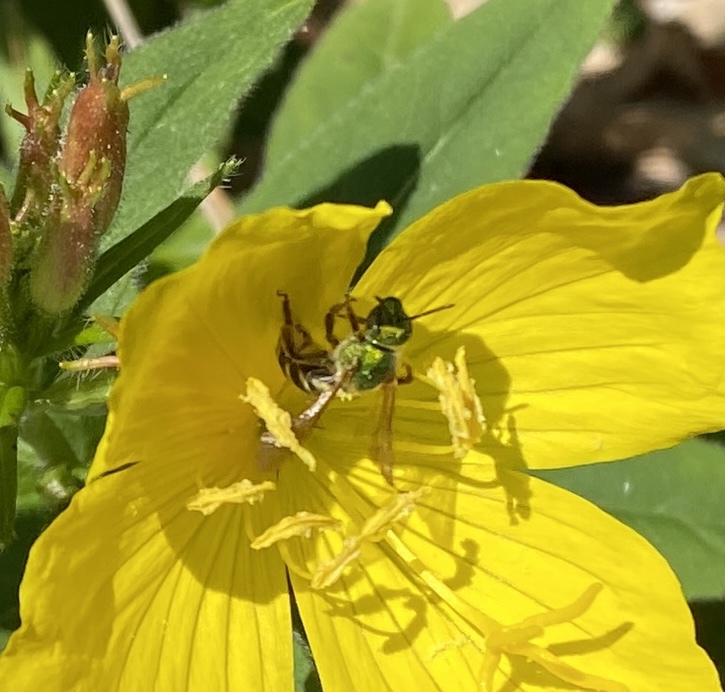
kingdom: Animalia
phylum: Arthropoda
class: Insecta
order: Hymenoptera
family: Halictidae
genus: Agapostemon
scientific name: Agapostemon virescens
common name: Bicolored striped sweat bee
